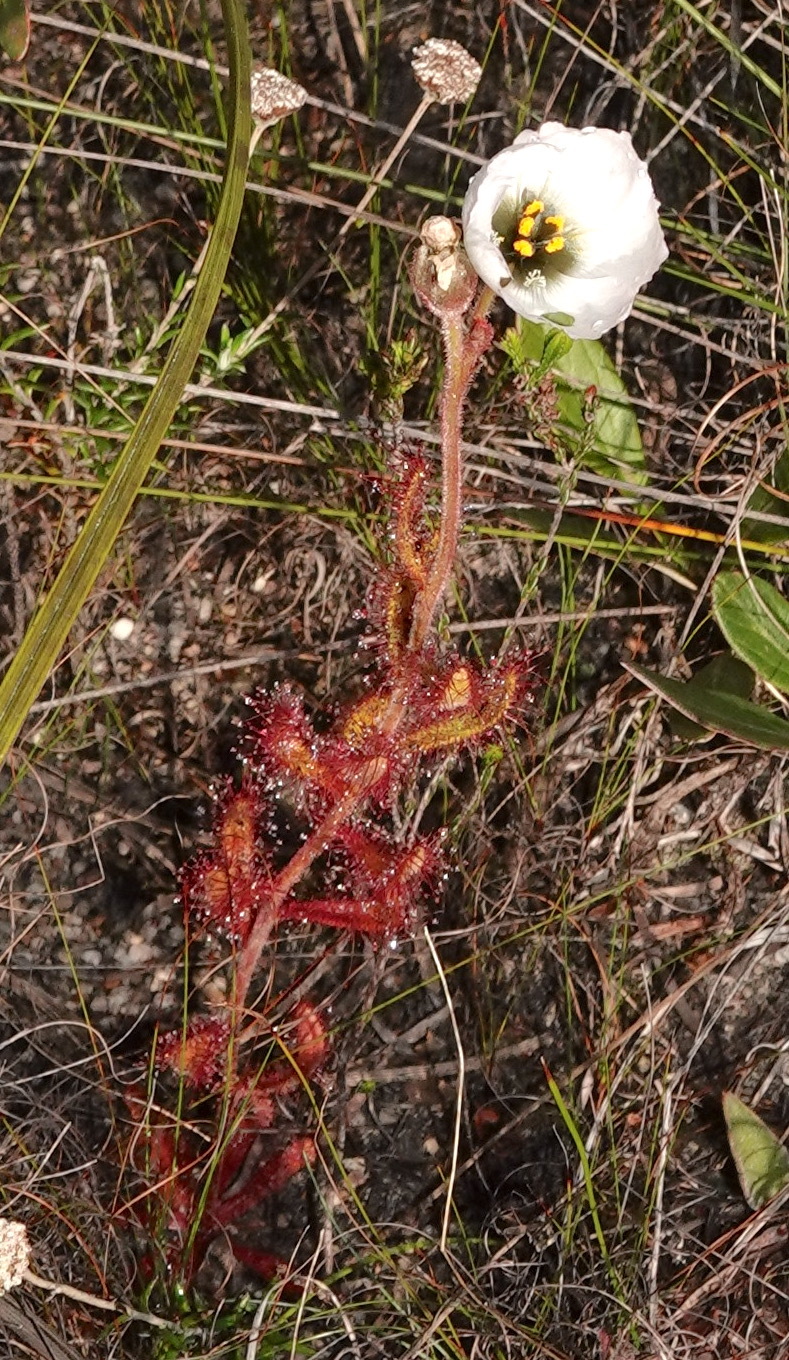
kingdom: Plantae
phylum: Tracheophyta
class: Magnoliopsida
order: Caryophyllales
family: Droseraceae
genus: Drosera
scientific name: Drosera cistiflora
